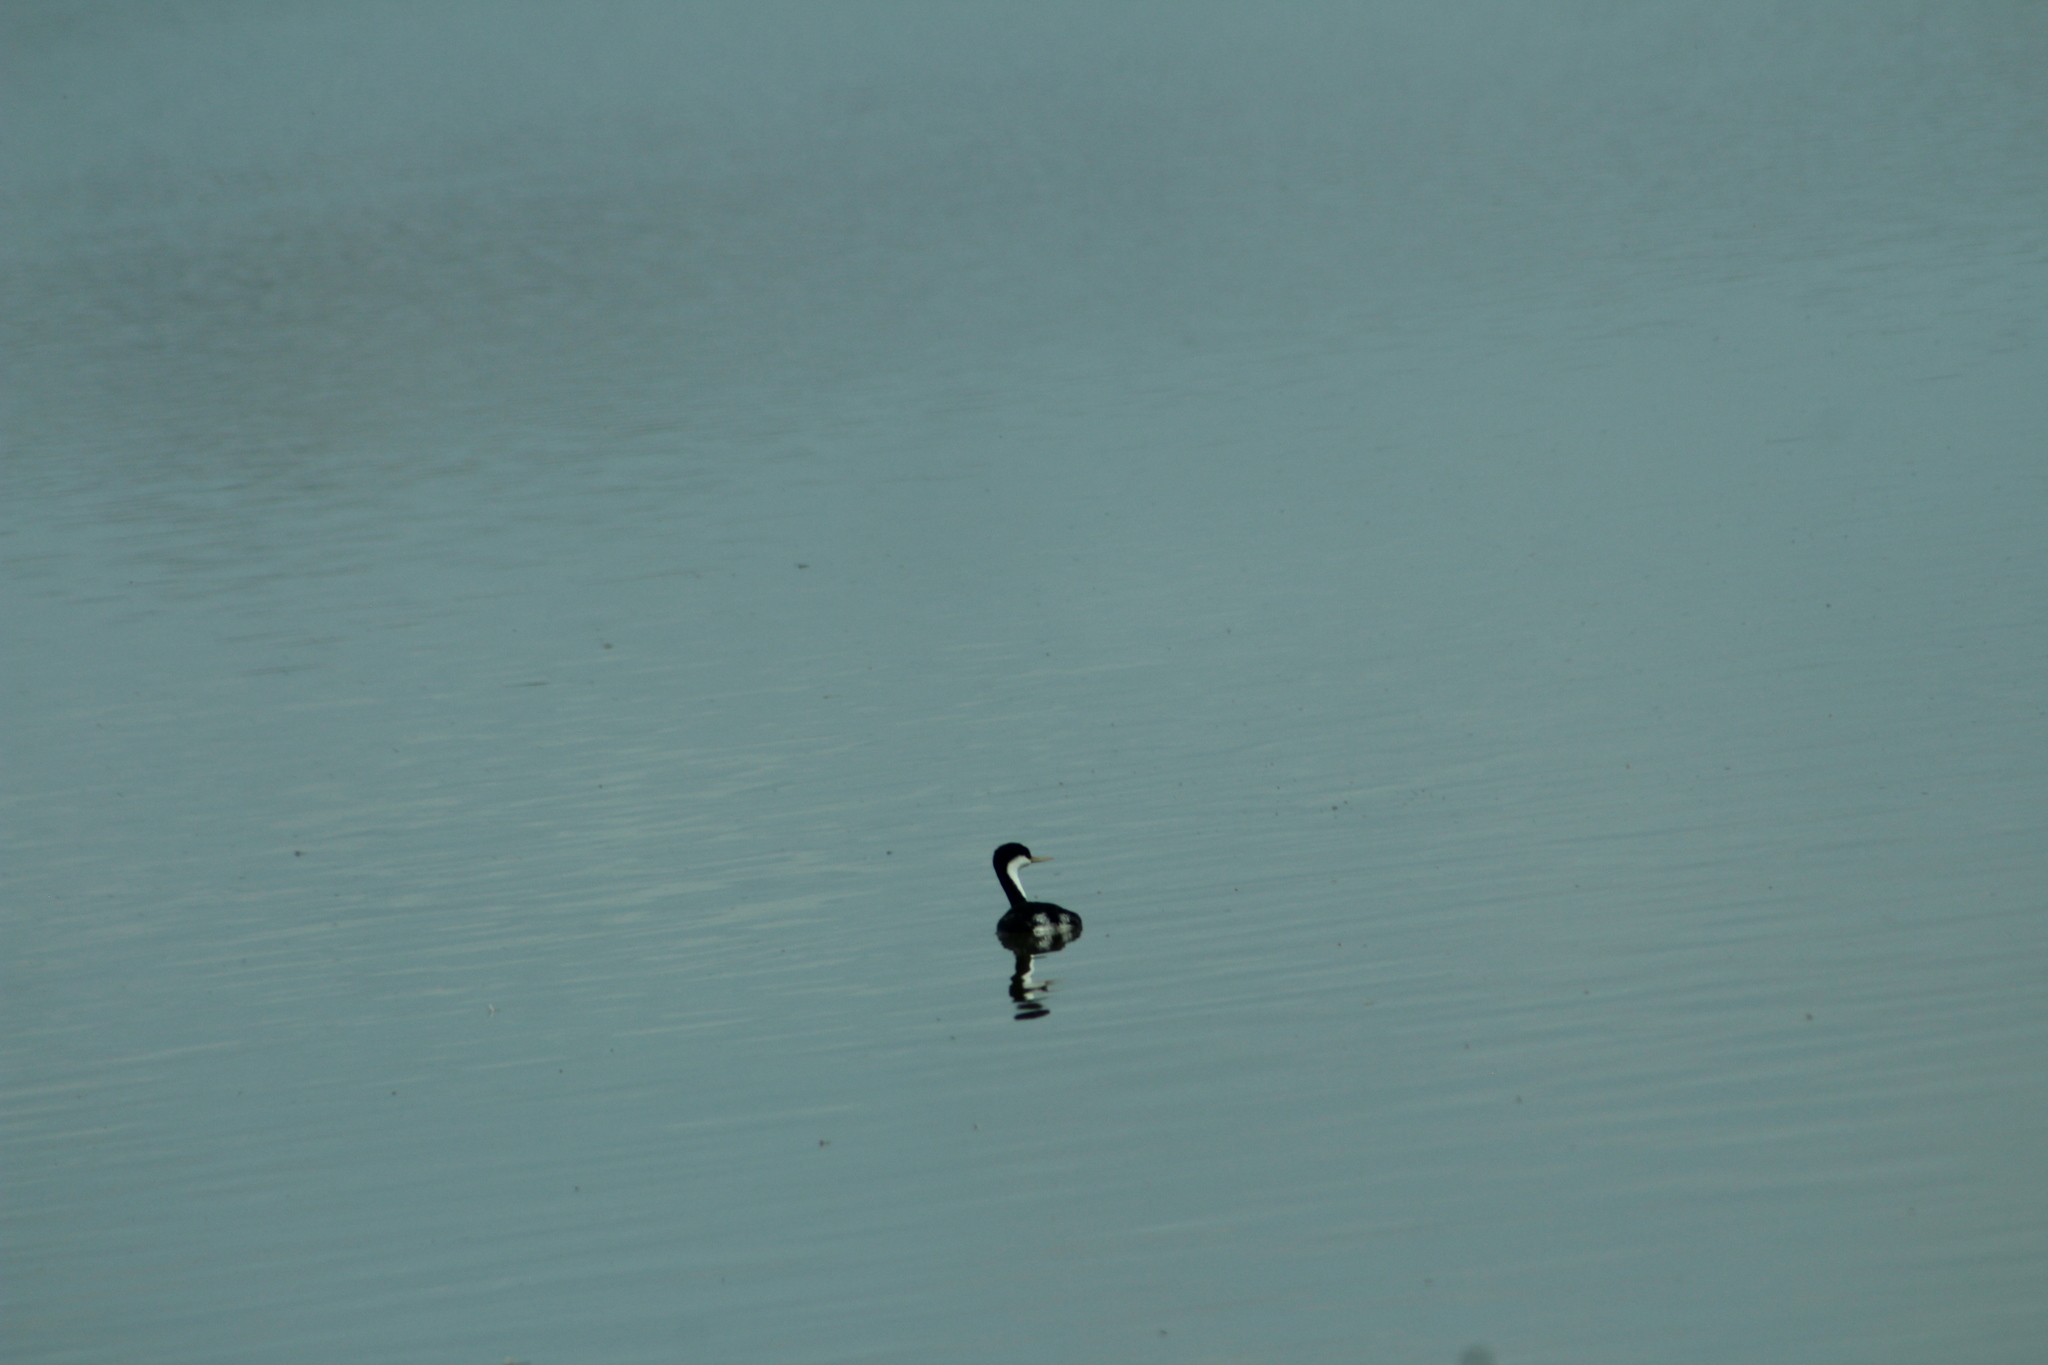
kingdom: Animalia
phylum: Chordata
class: Aves
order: Podicipediformes
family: Podicipedidae
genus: Aechmophorus
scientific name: Aechmophorus occidentalis
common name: Western grebe
